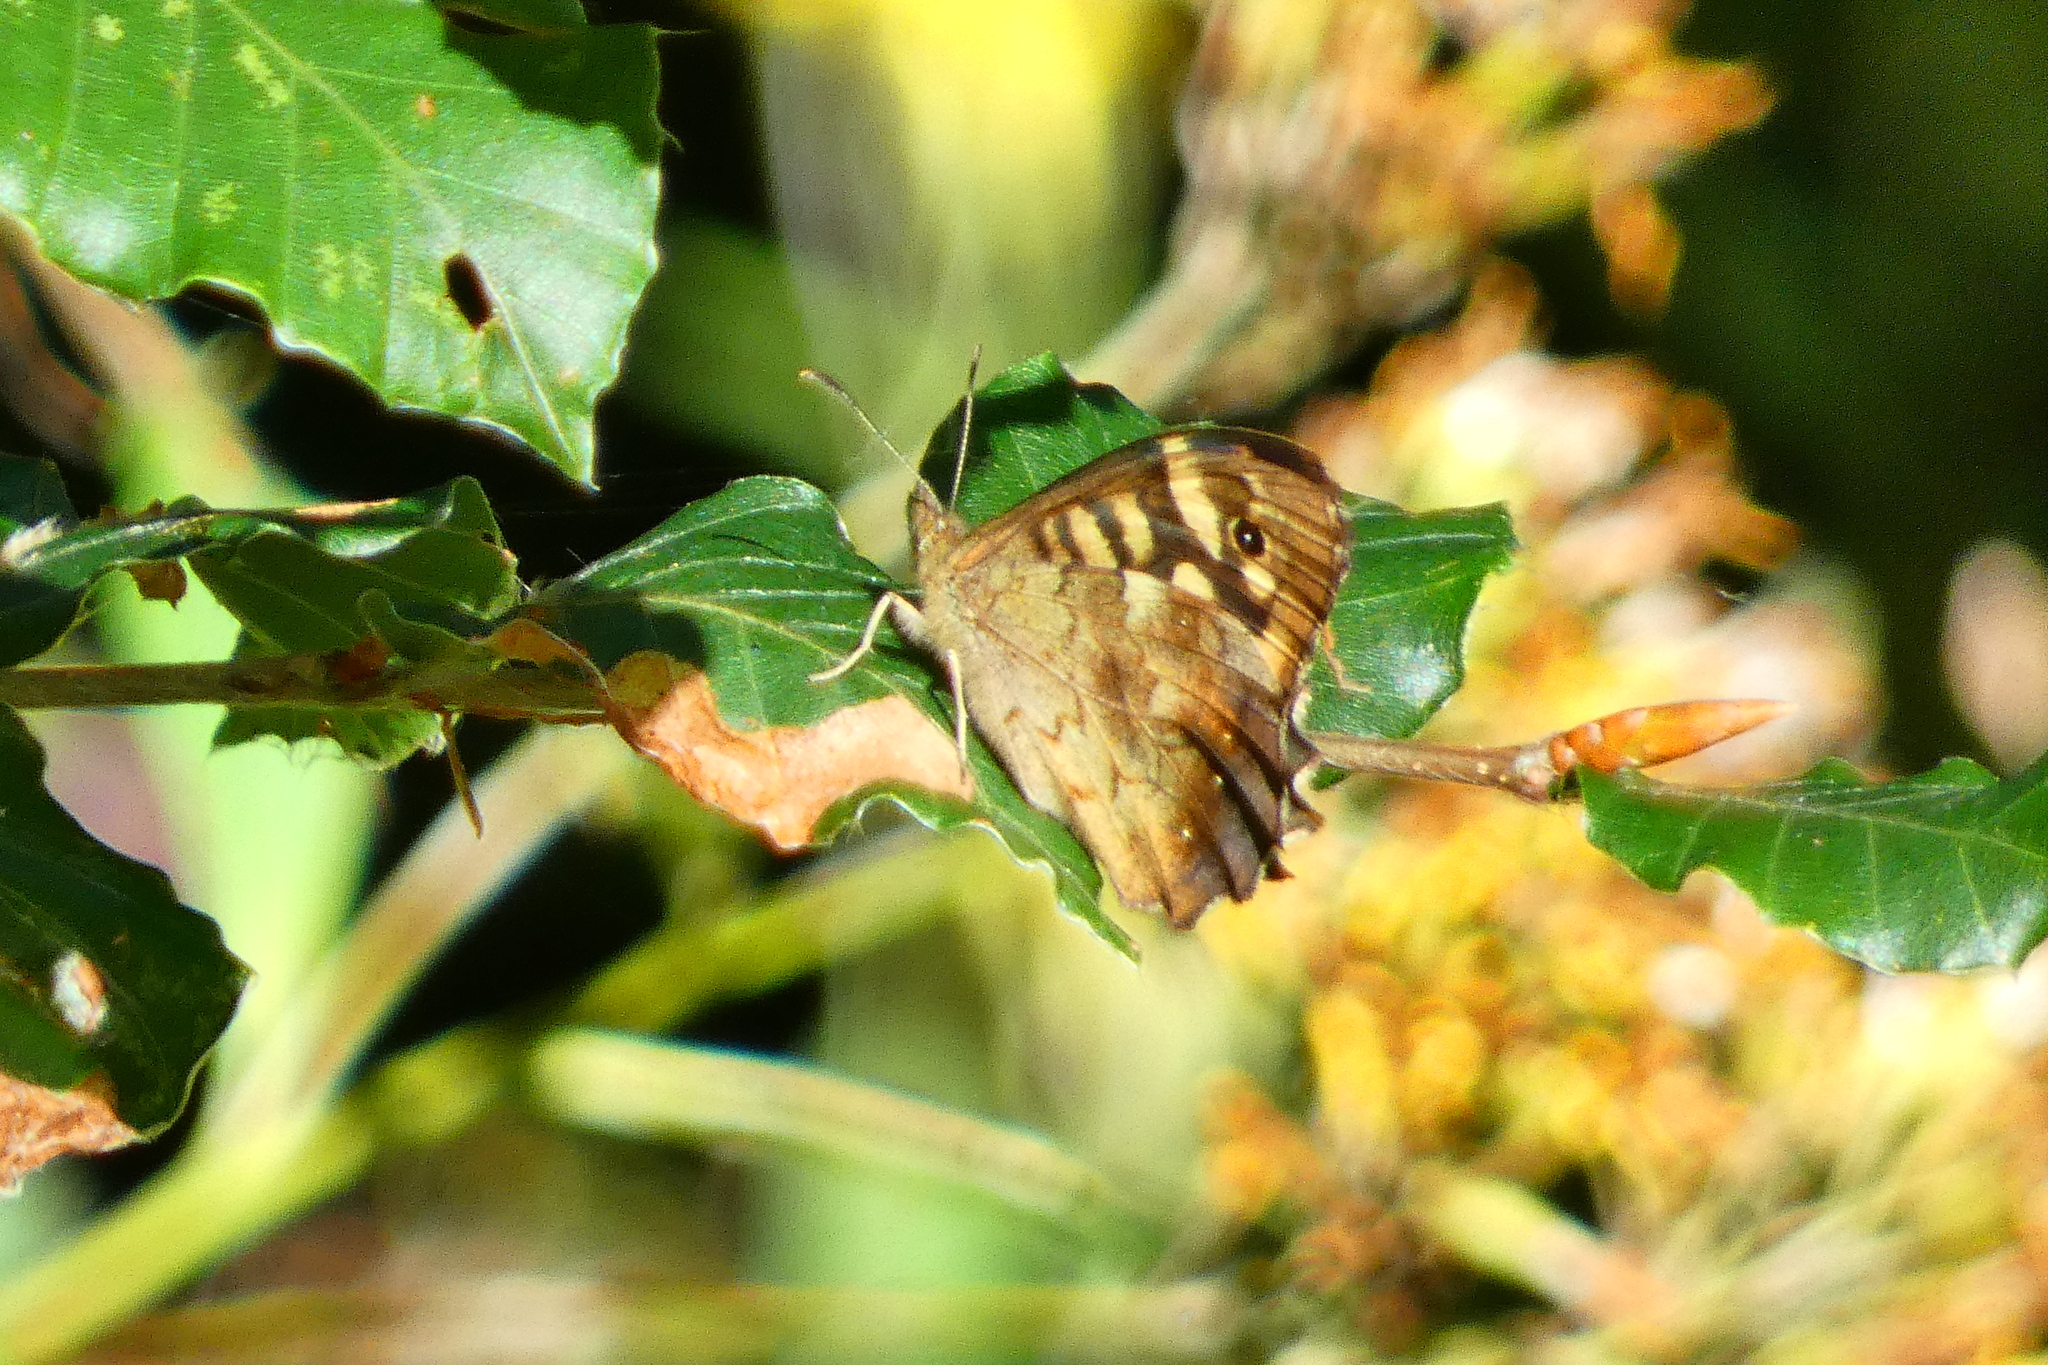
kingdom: Animalia
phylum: Arthropoda
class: Insecta
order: Lepidoptera
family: Nymphalidae
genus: Pararge
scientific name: Pararge aegeria
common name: Speckled wood
